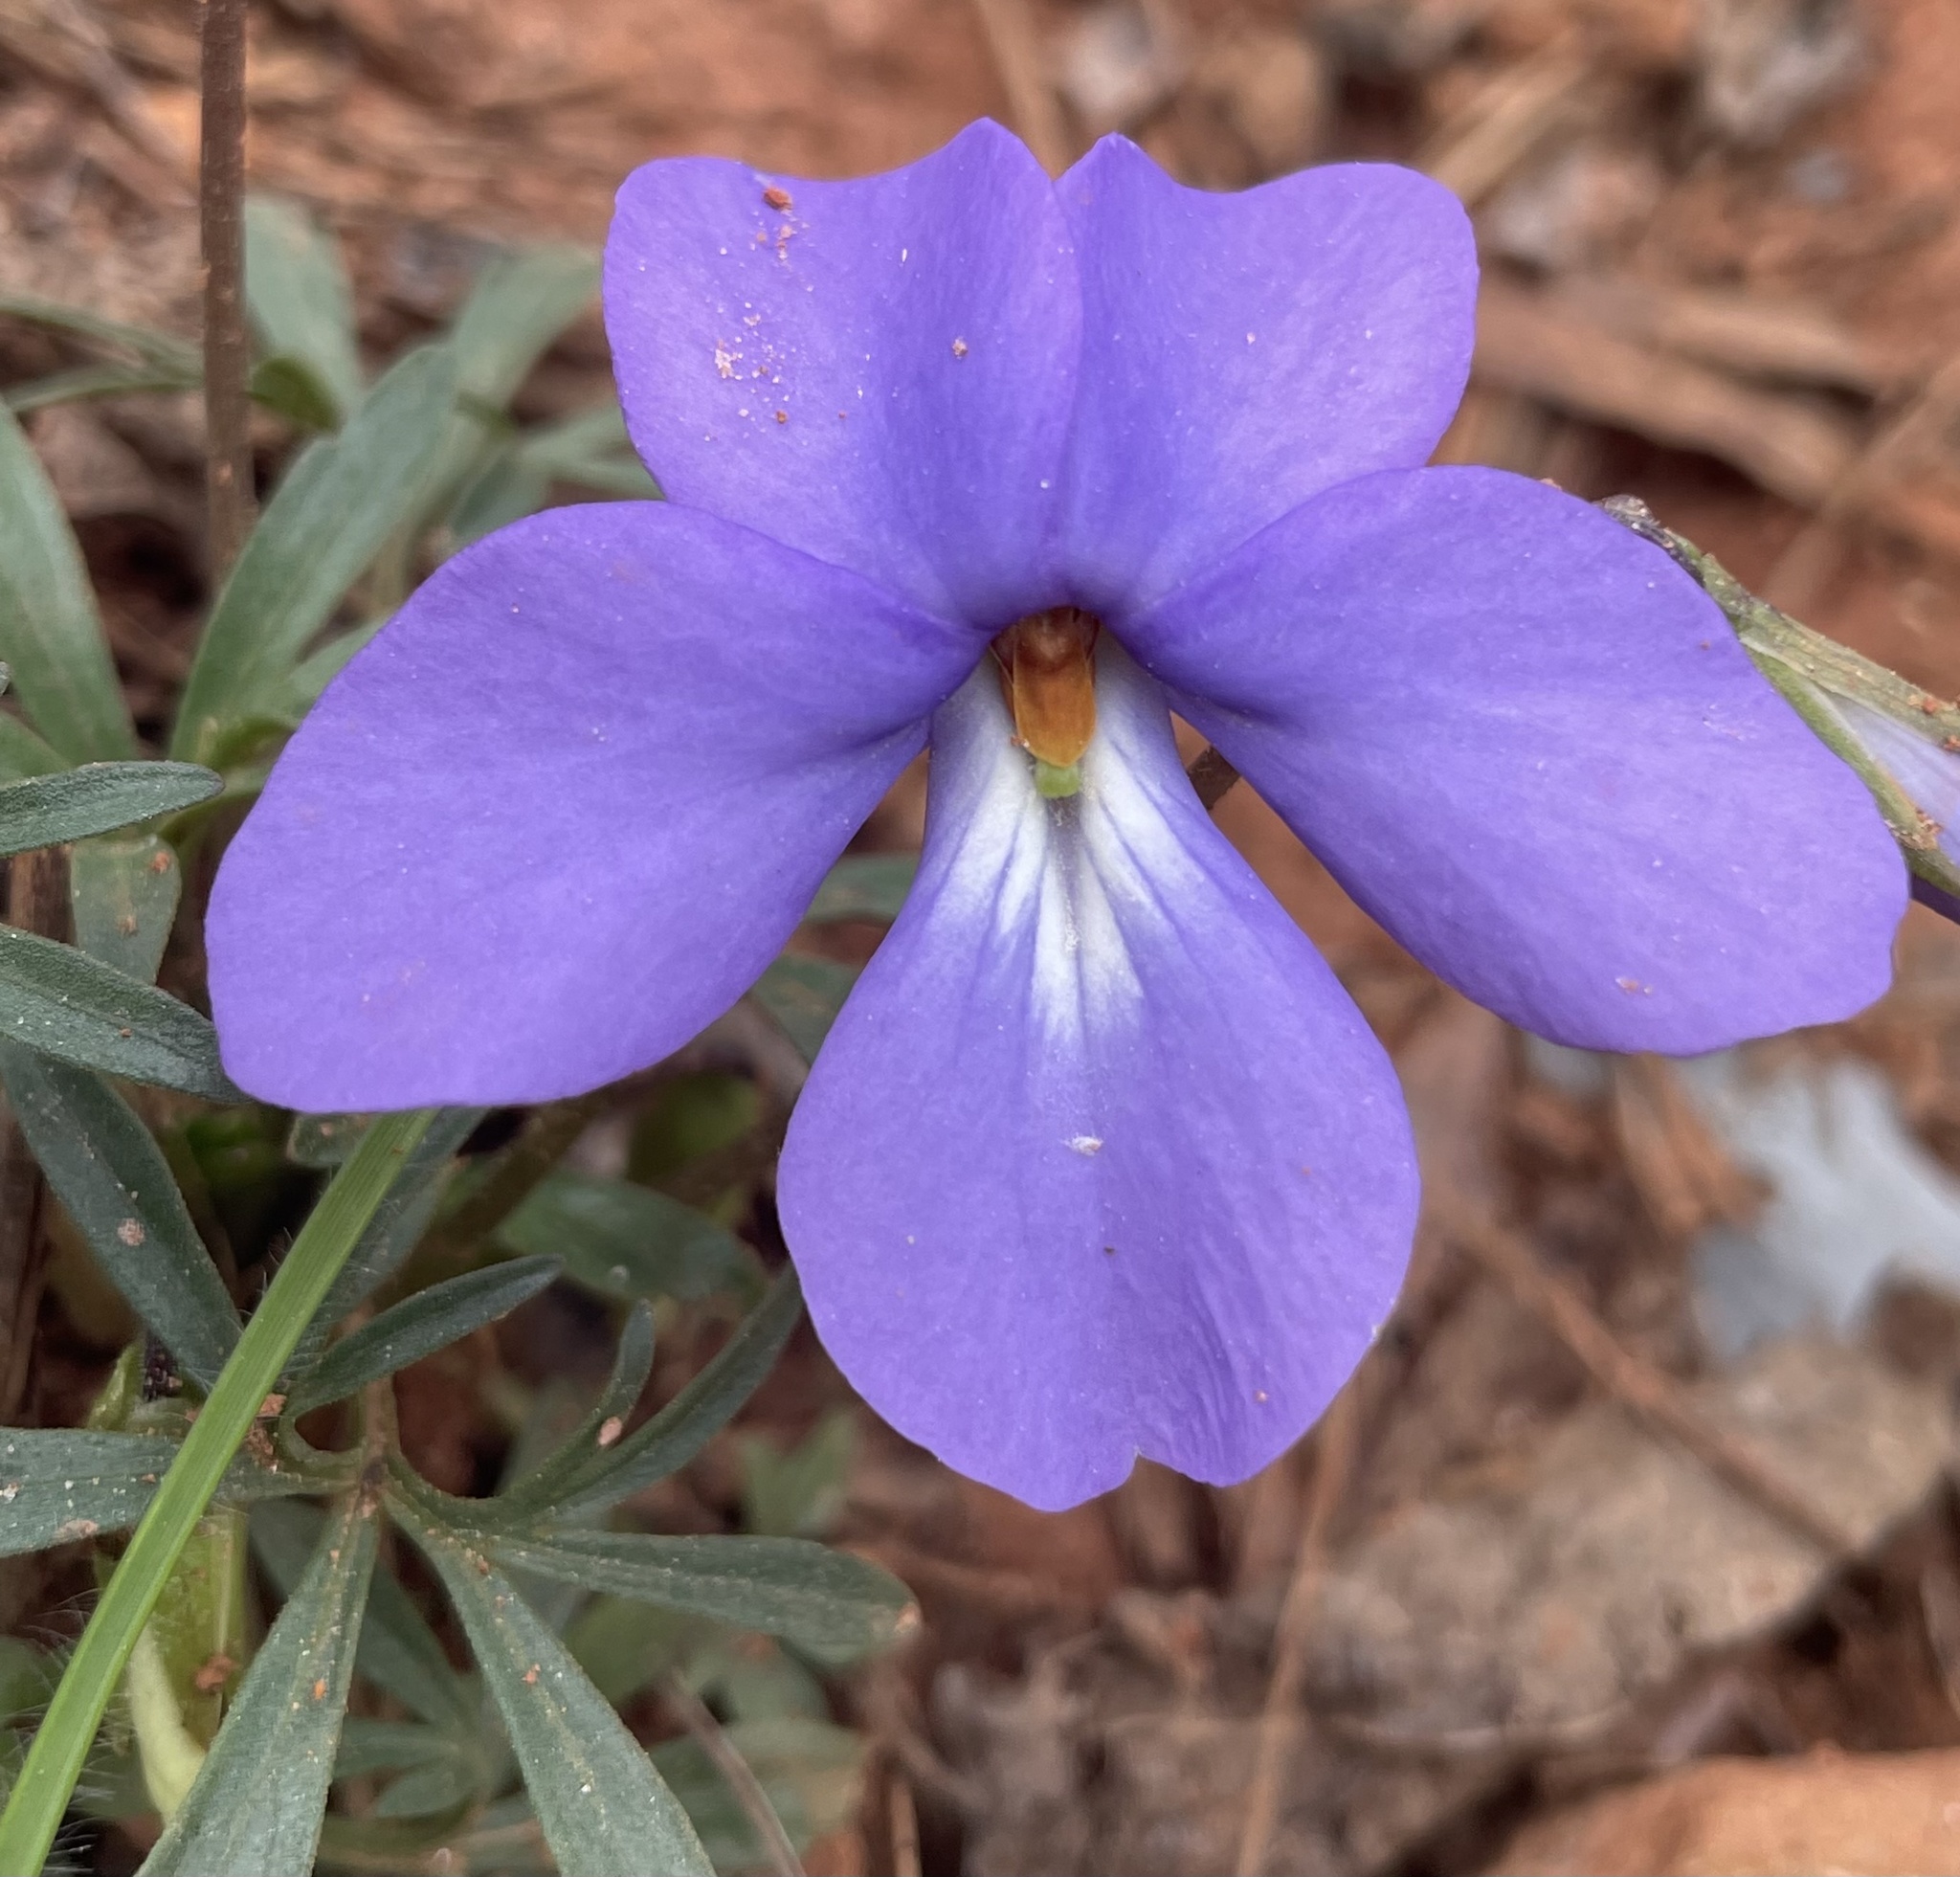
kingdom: Plantae
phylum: Tracheophyta
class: Magnoliopsida
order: Malpighiales
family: Violaceae
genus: Viola
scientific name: Viola pedata
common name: Pansy violet
